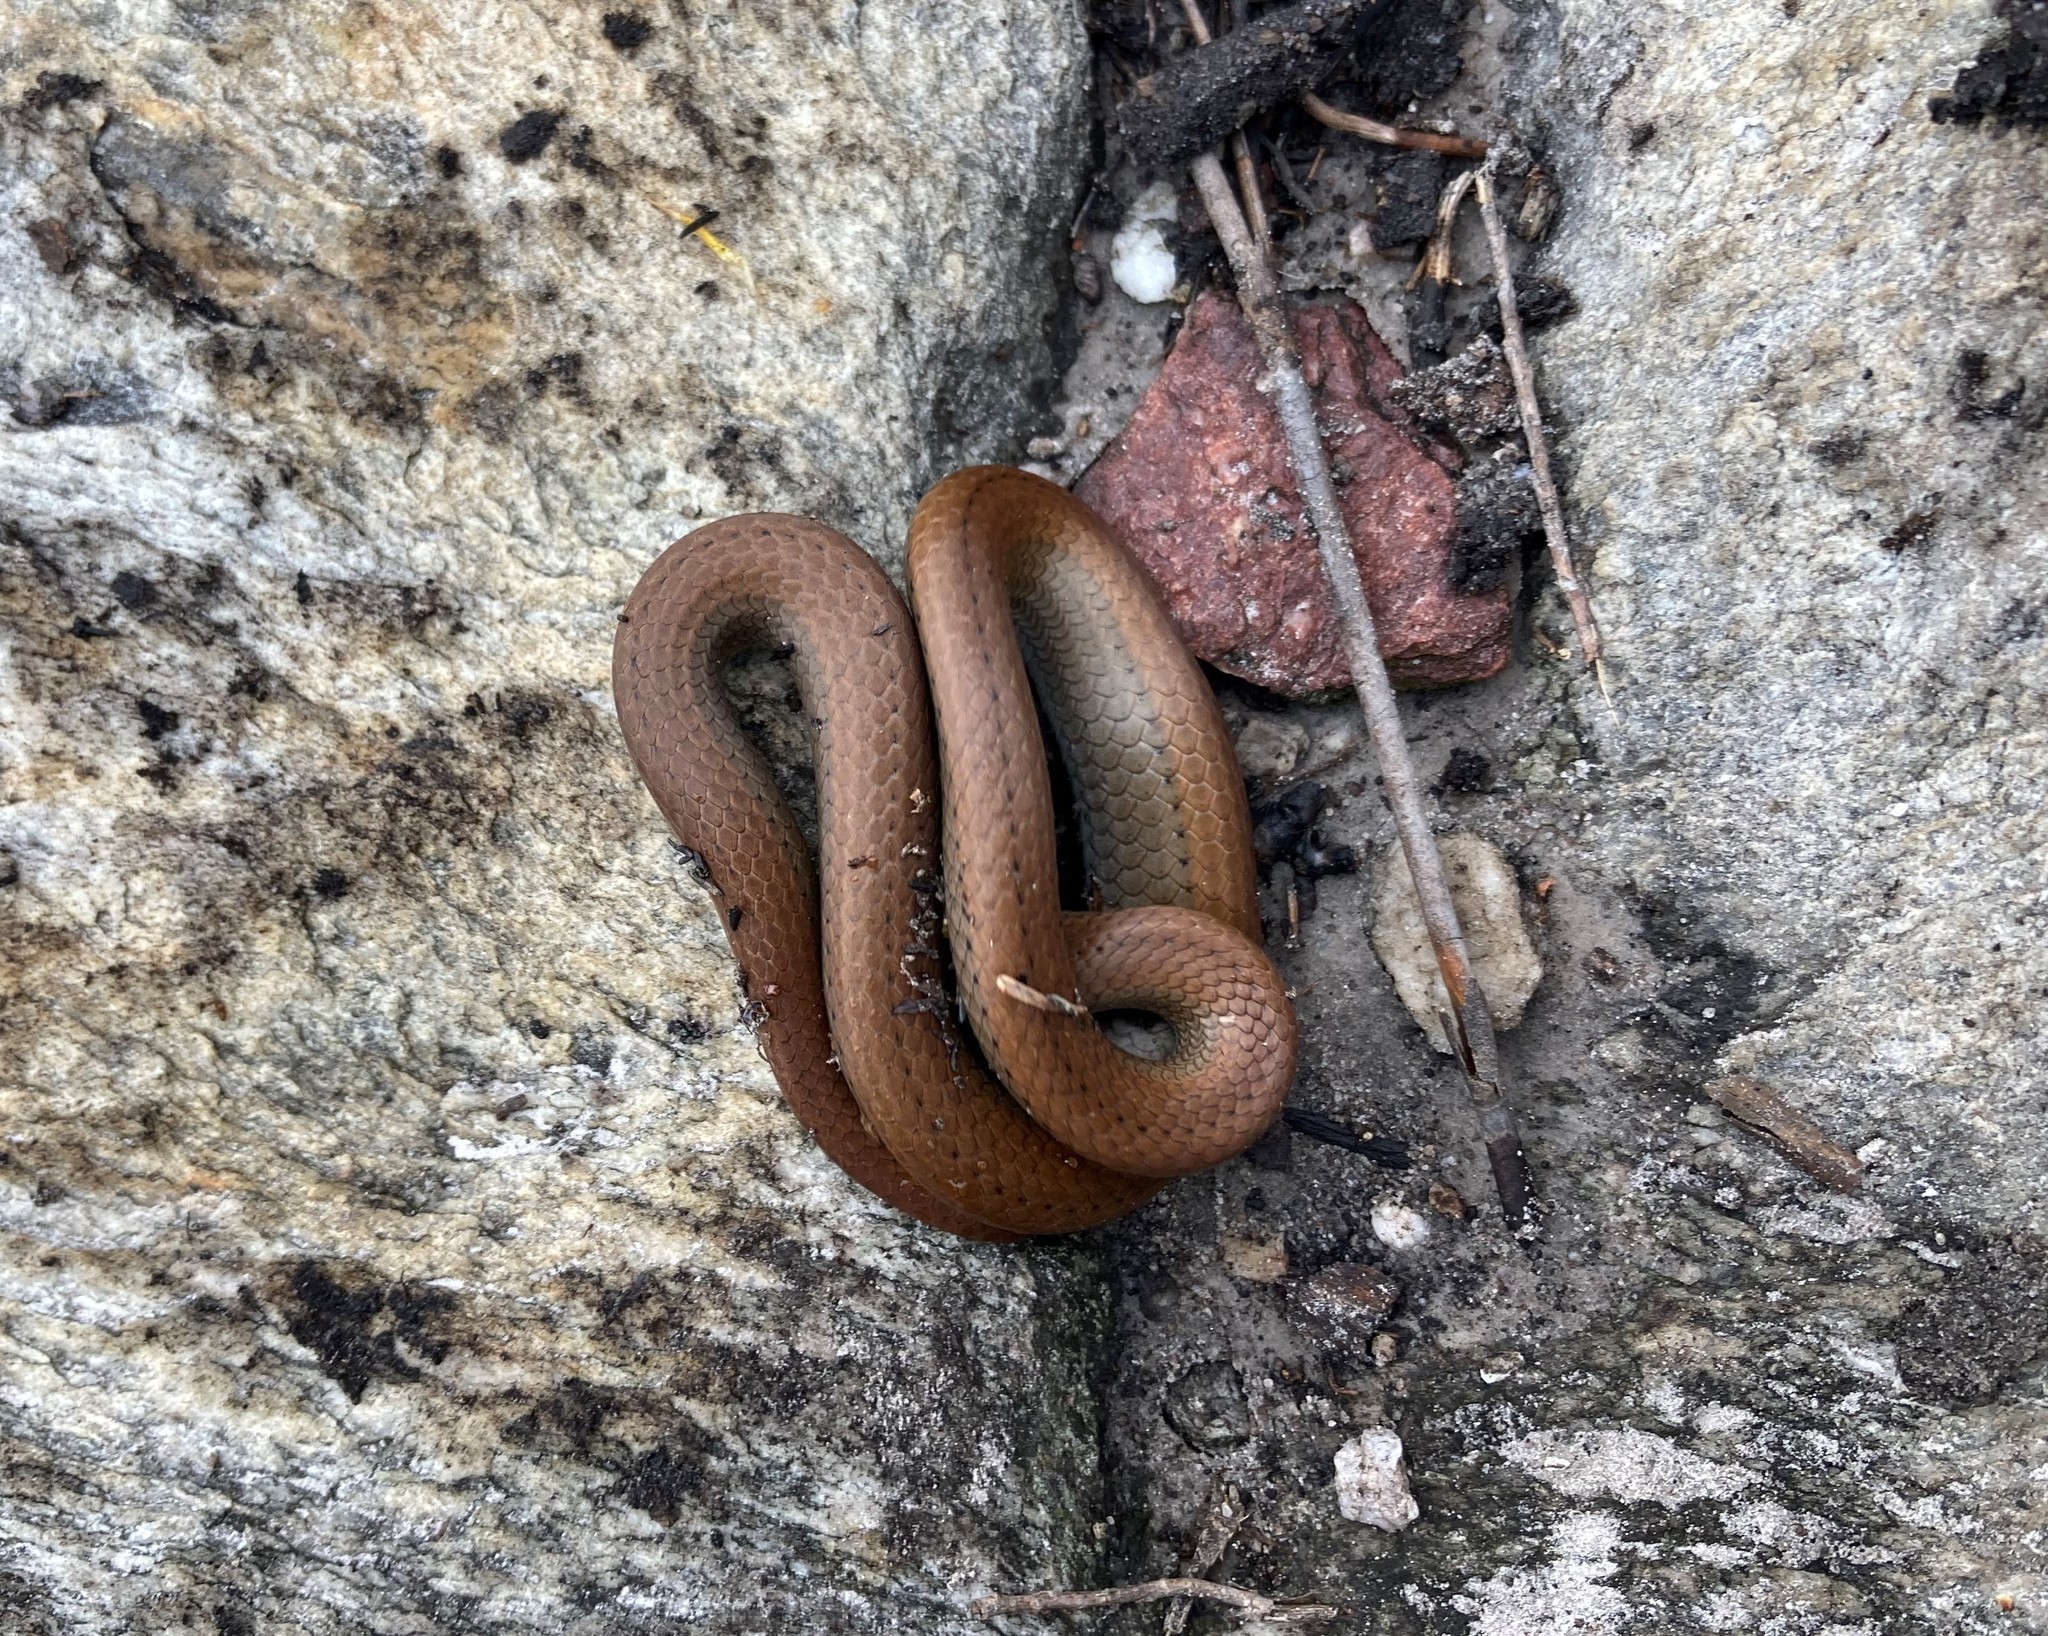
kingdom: Animalia
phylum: Chordata
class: Squamata
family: Pseudoxyrhophiidae
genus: Duberria
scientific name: Duberria lutrix
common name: Common slug eater
